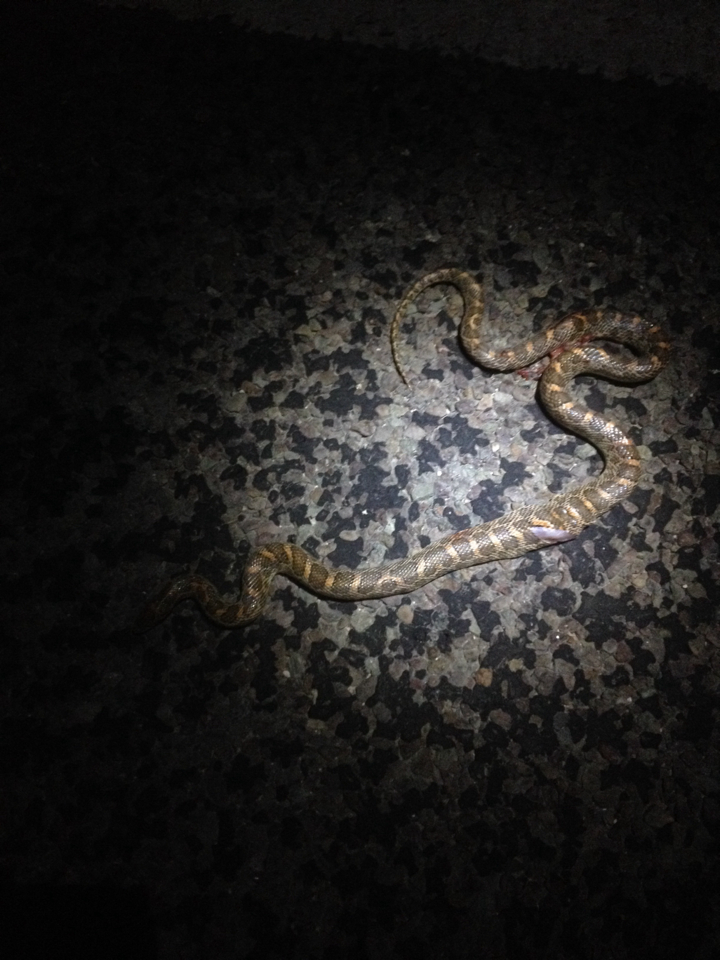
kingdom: Animalia
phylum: Chordata
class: Squamata
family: Colubridae
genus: Arizona
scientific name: Arizona elegans
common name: Glossy snake
